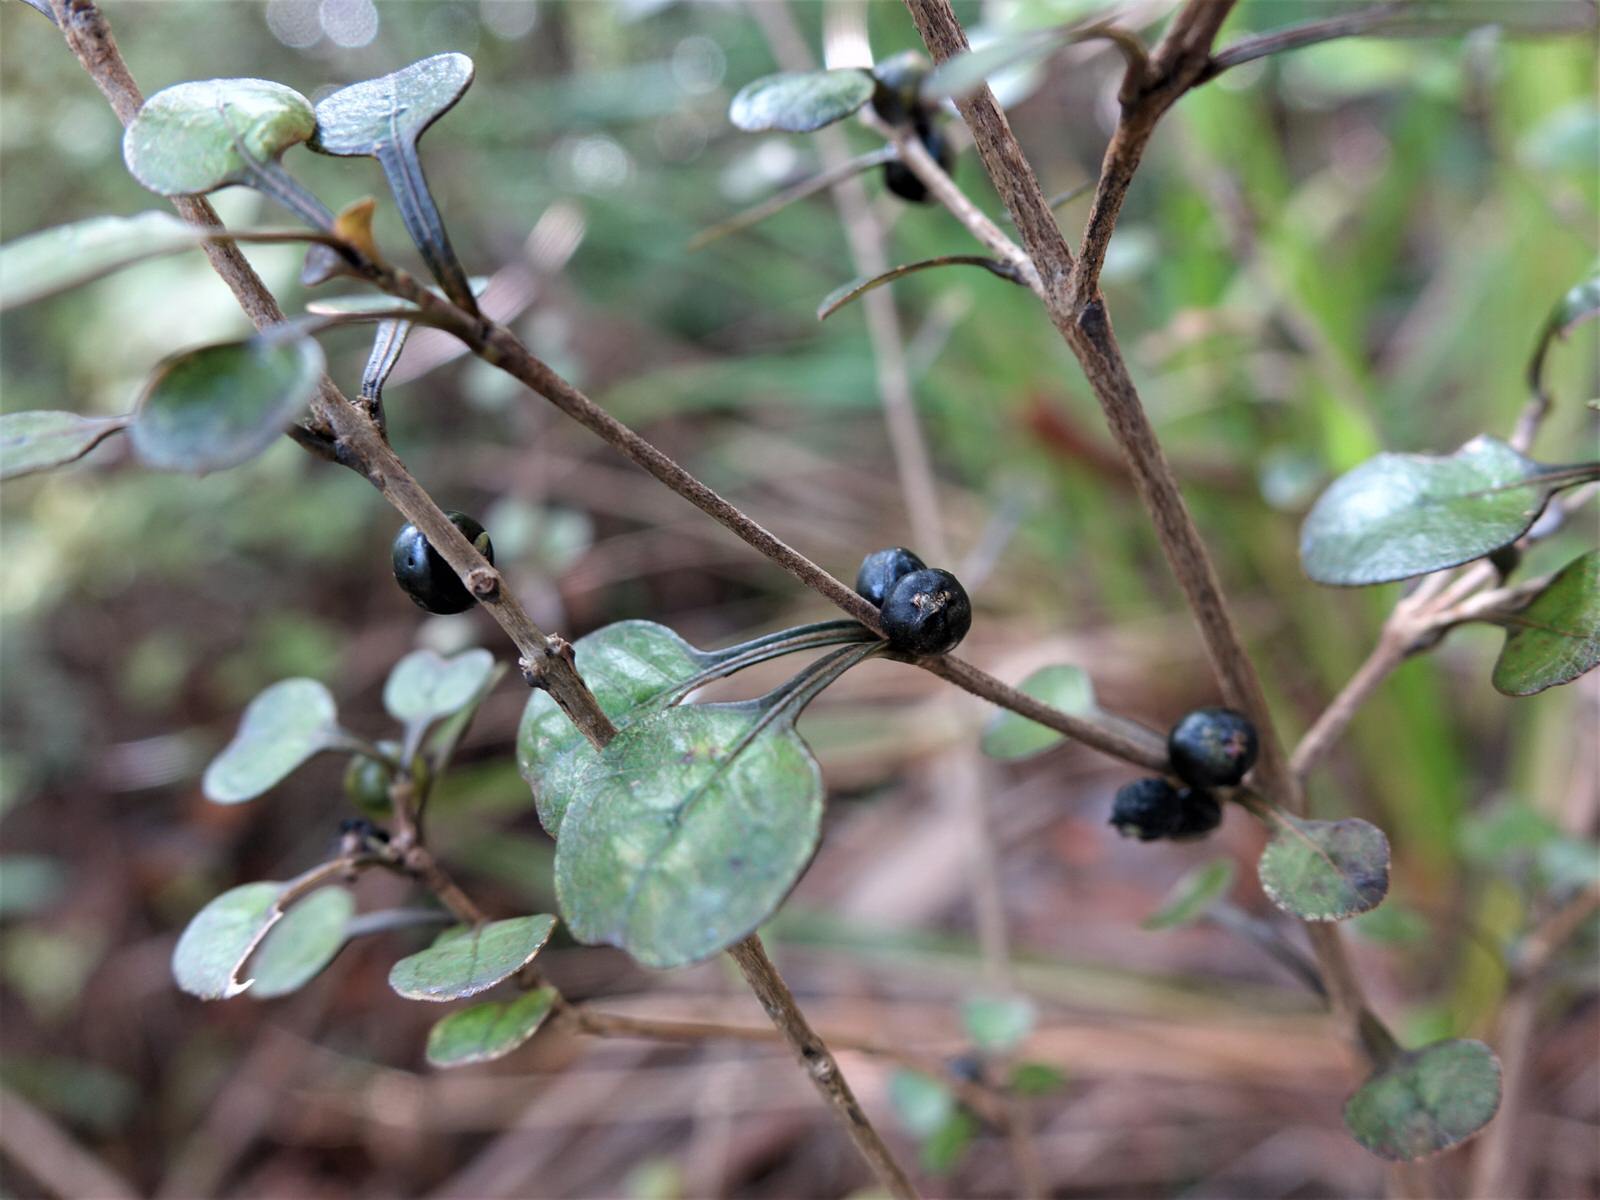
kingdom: Plantae
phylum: Tracheophyta
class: Magnoliopsida
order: Gentianales
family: Rubiaceae
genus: Coprosma
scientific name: Coprosma spathulata
